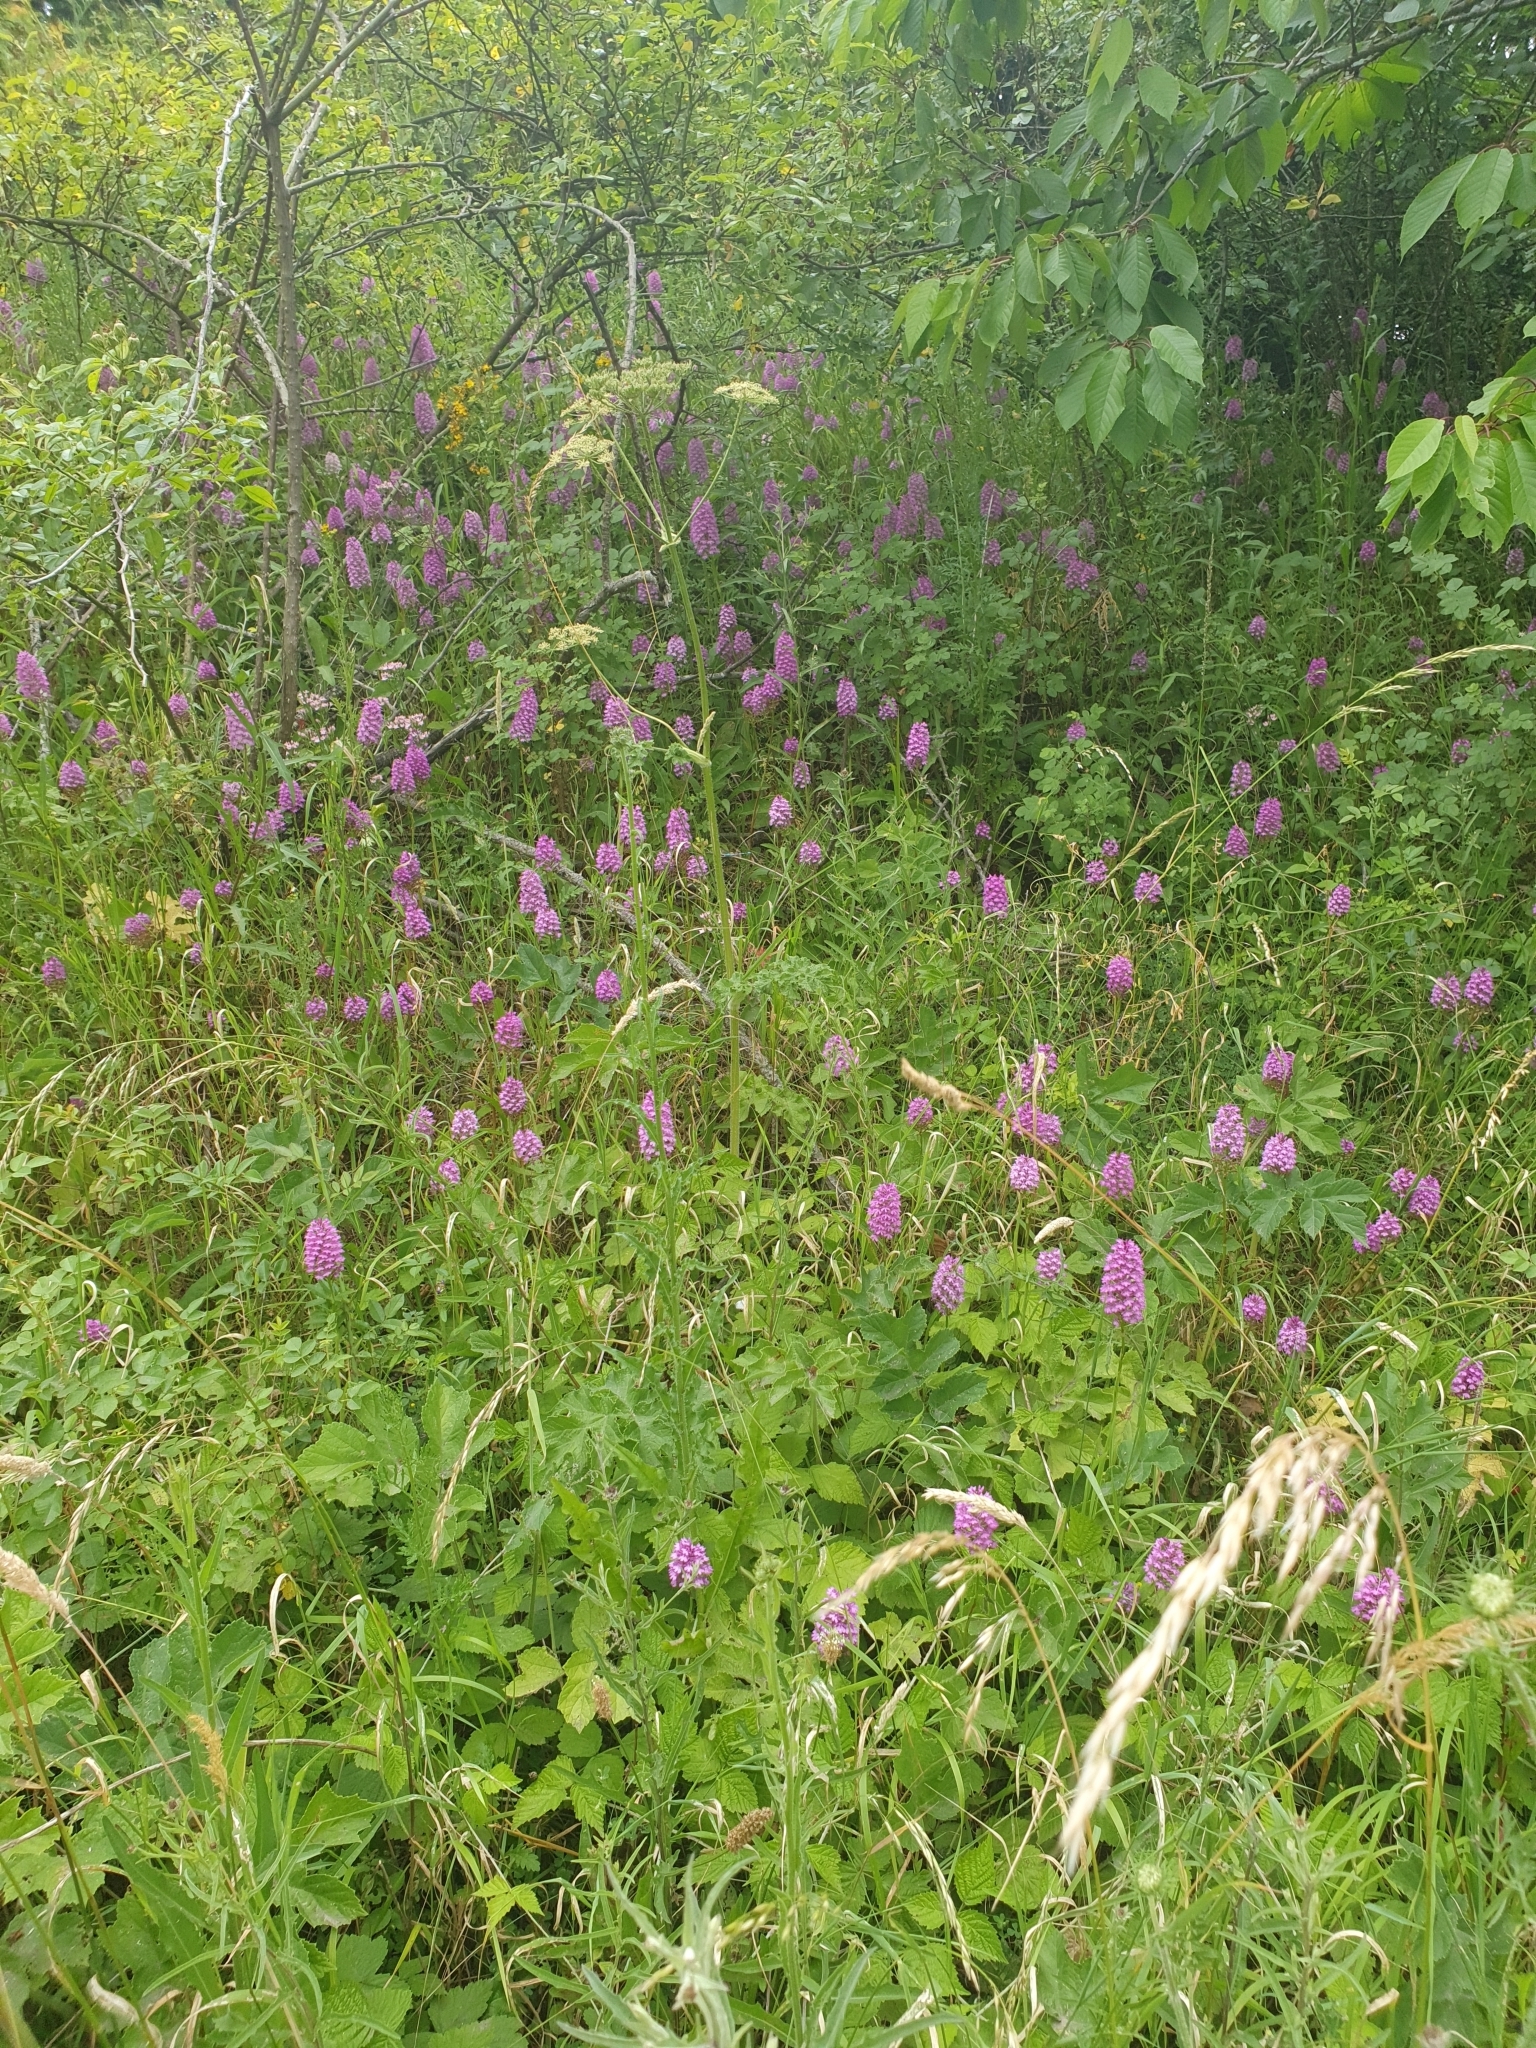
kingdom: Plantae
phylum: Tracheophyta
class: Liliopsida
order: Asparagales
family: Orchidaceae
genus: Anacamptis
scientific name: Anacamptis pyramidalis
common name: Pyramidal orchid
